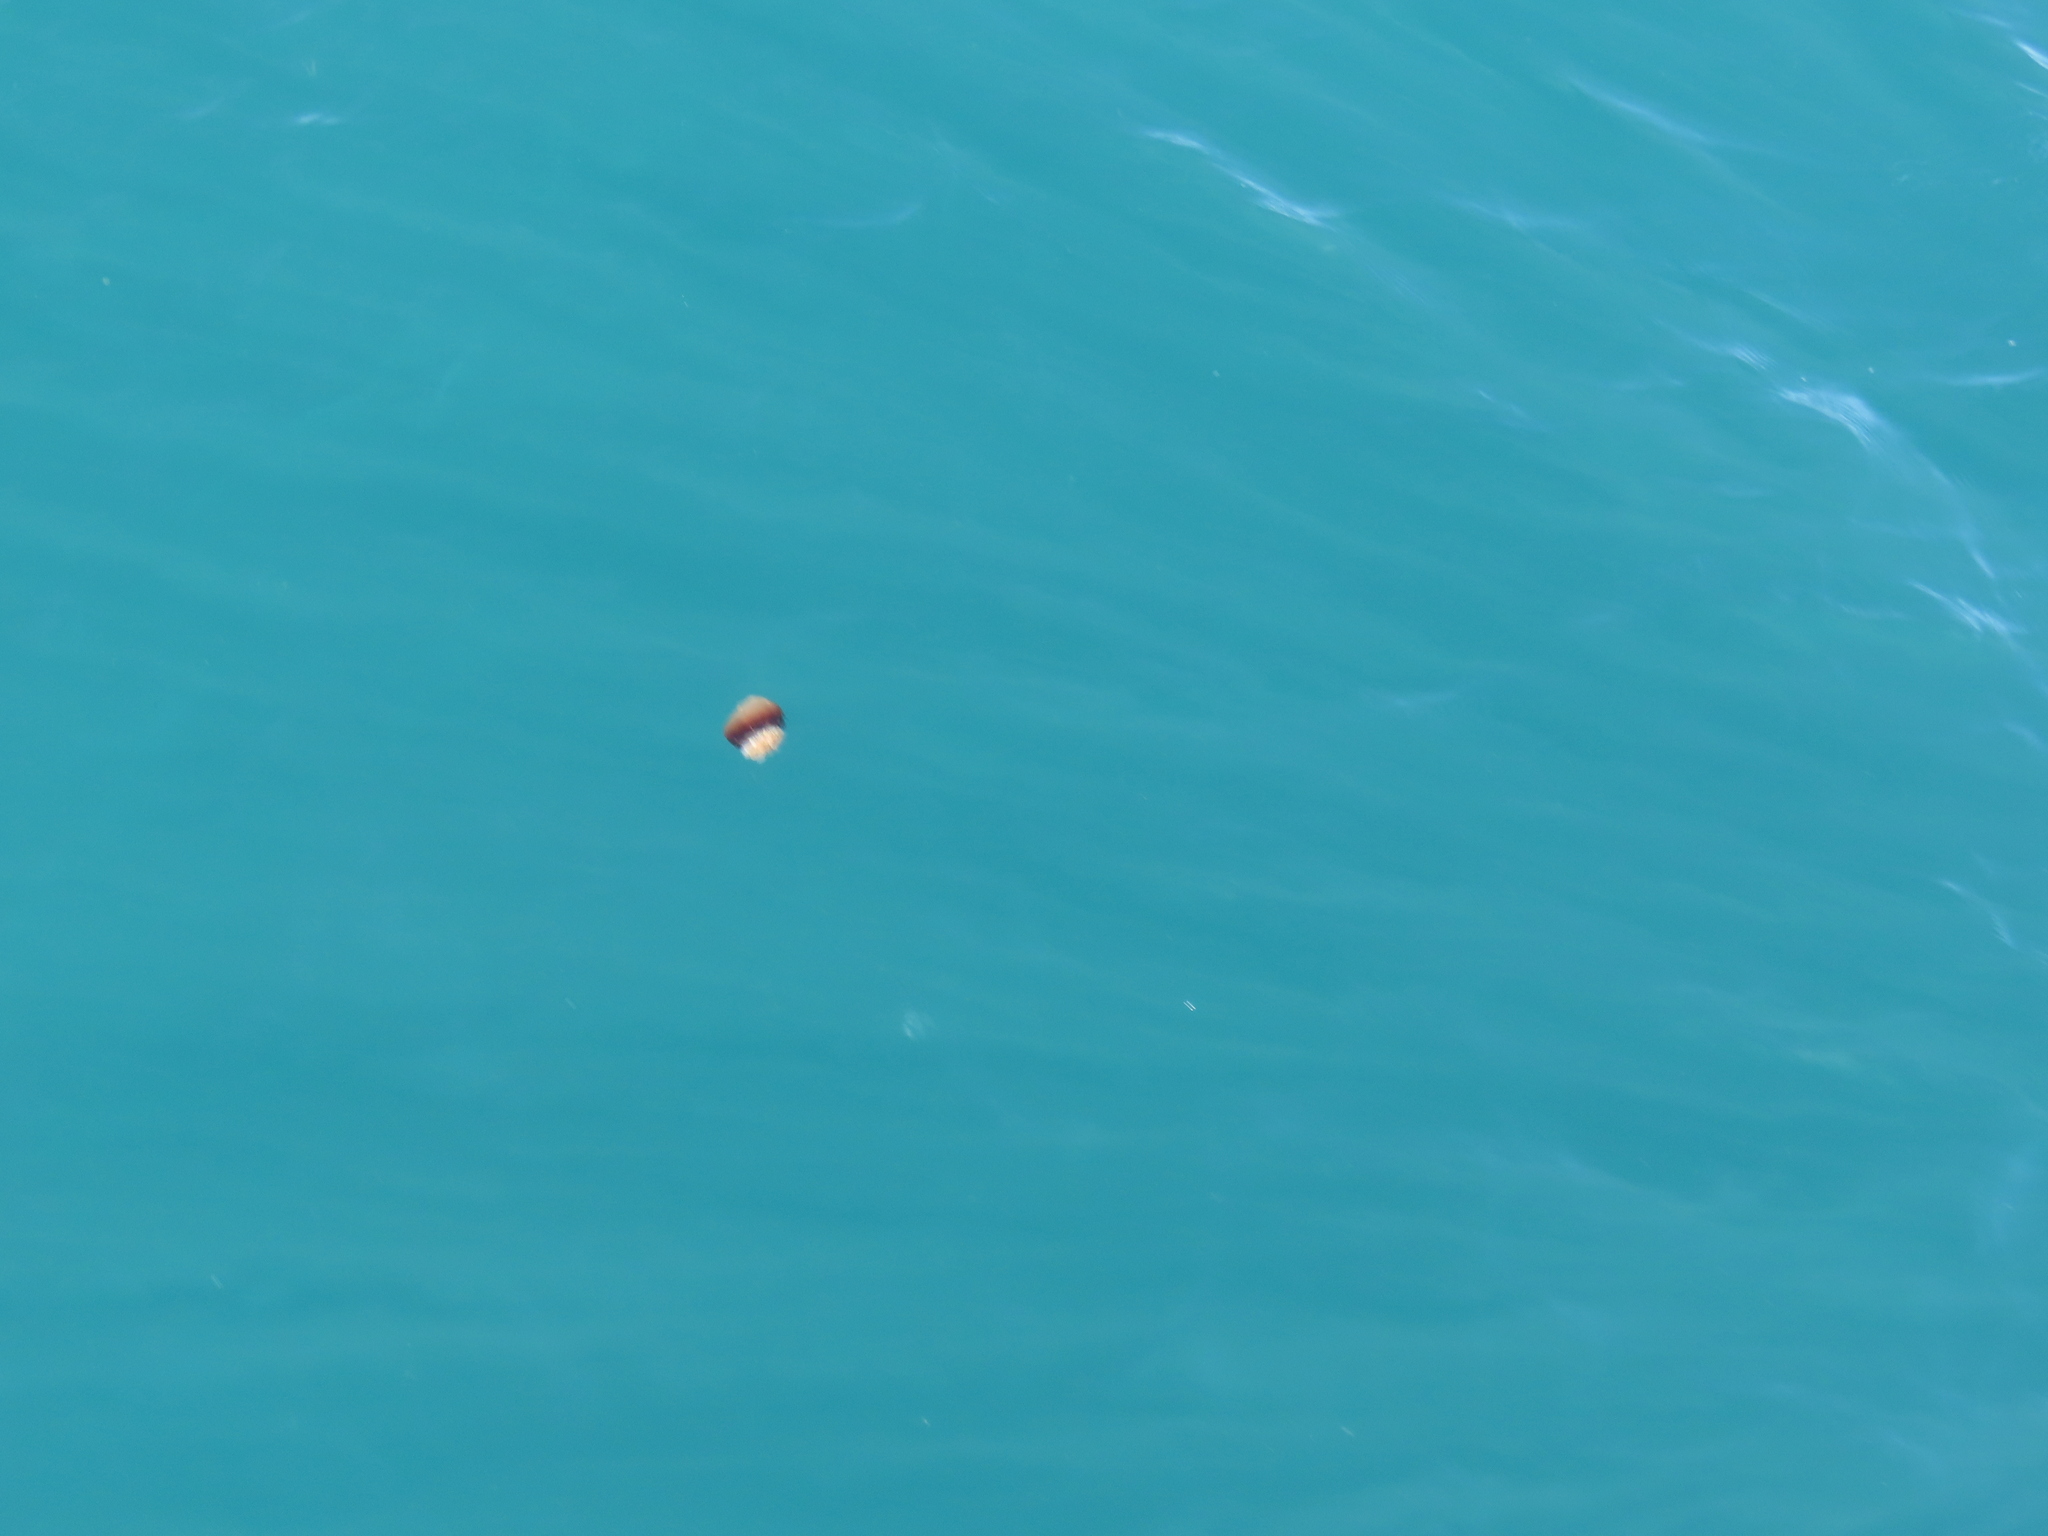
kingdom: Animalia
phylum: Cnidaria
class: Scyphozoa
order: Rhizostomeae
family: Stomolophidae
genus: Stomolophus
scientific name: Stomolophus meleagris
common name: Cabbagehead
